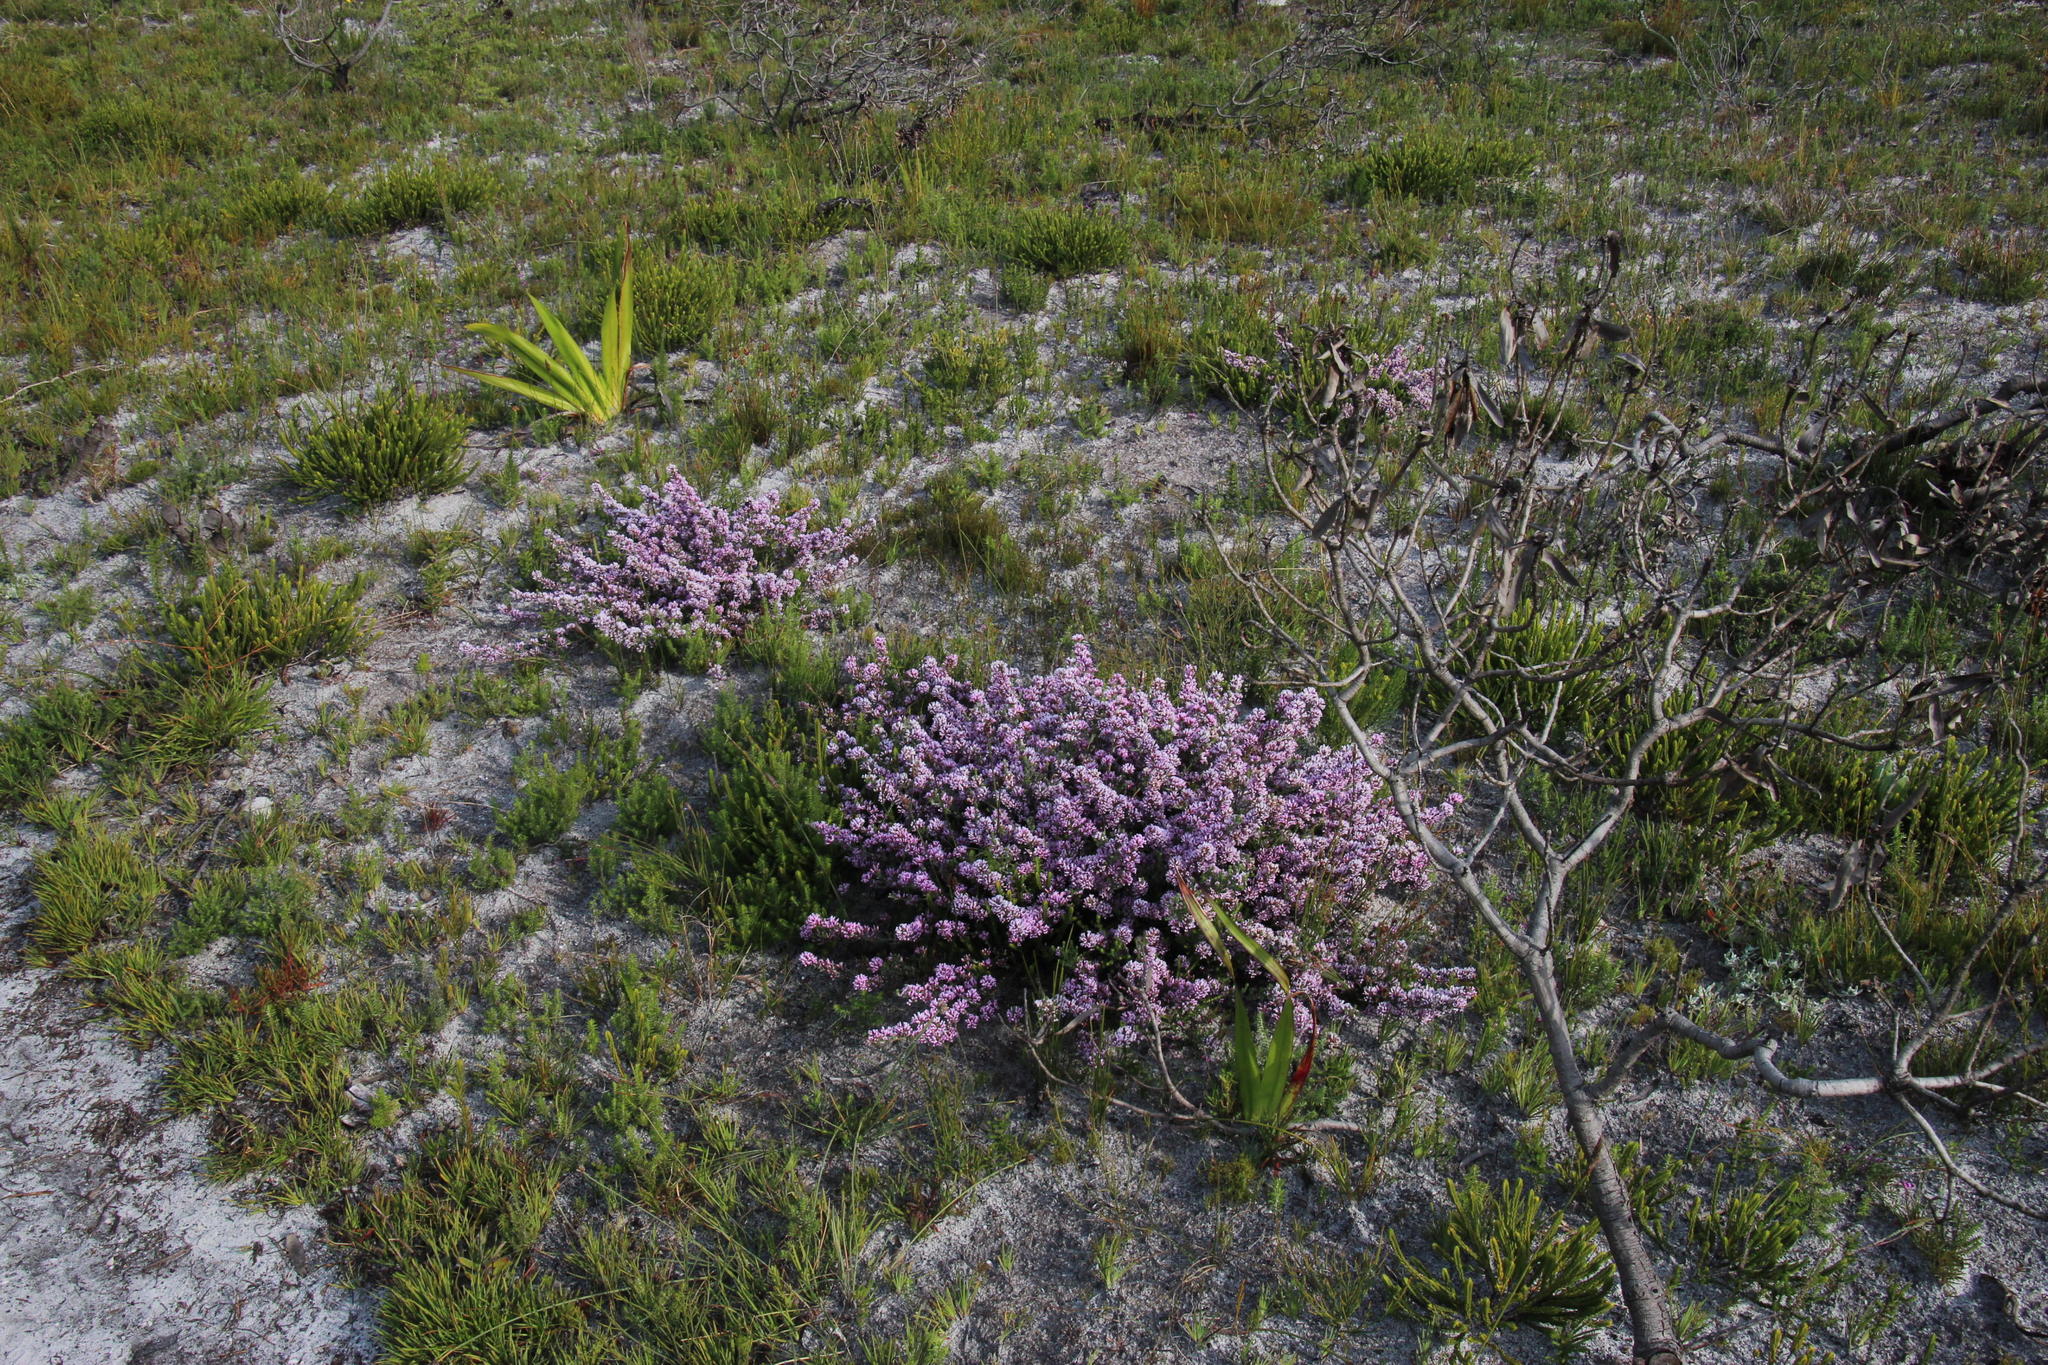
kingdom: Plantae
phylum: Tracheophyta
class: Magnoliopsida
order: Fabales
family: Fabaceae
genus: Amphithalea
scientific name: Amphithalea ericifolia
